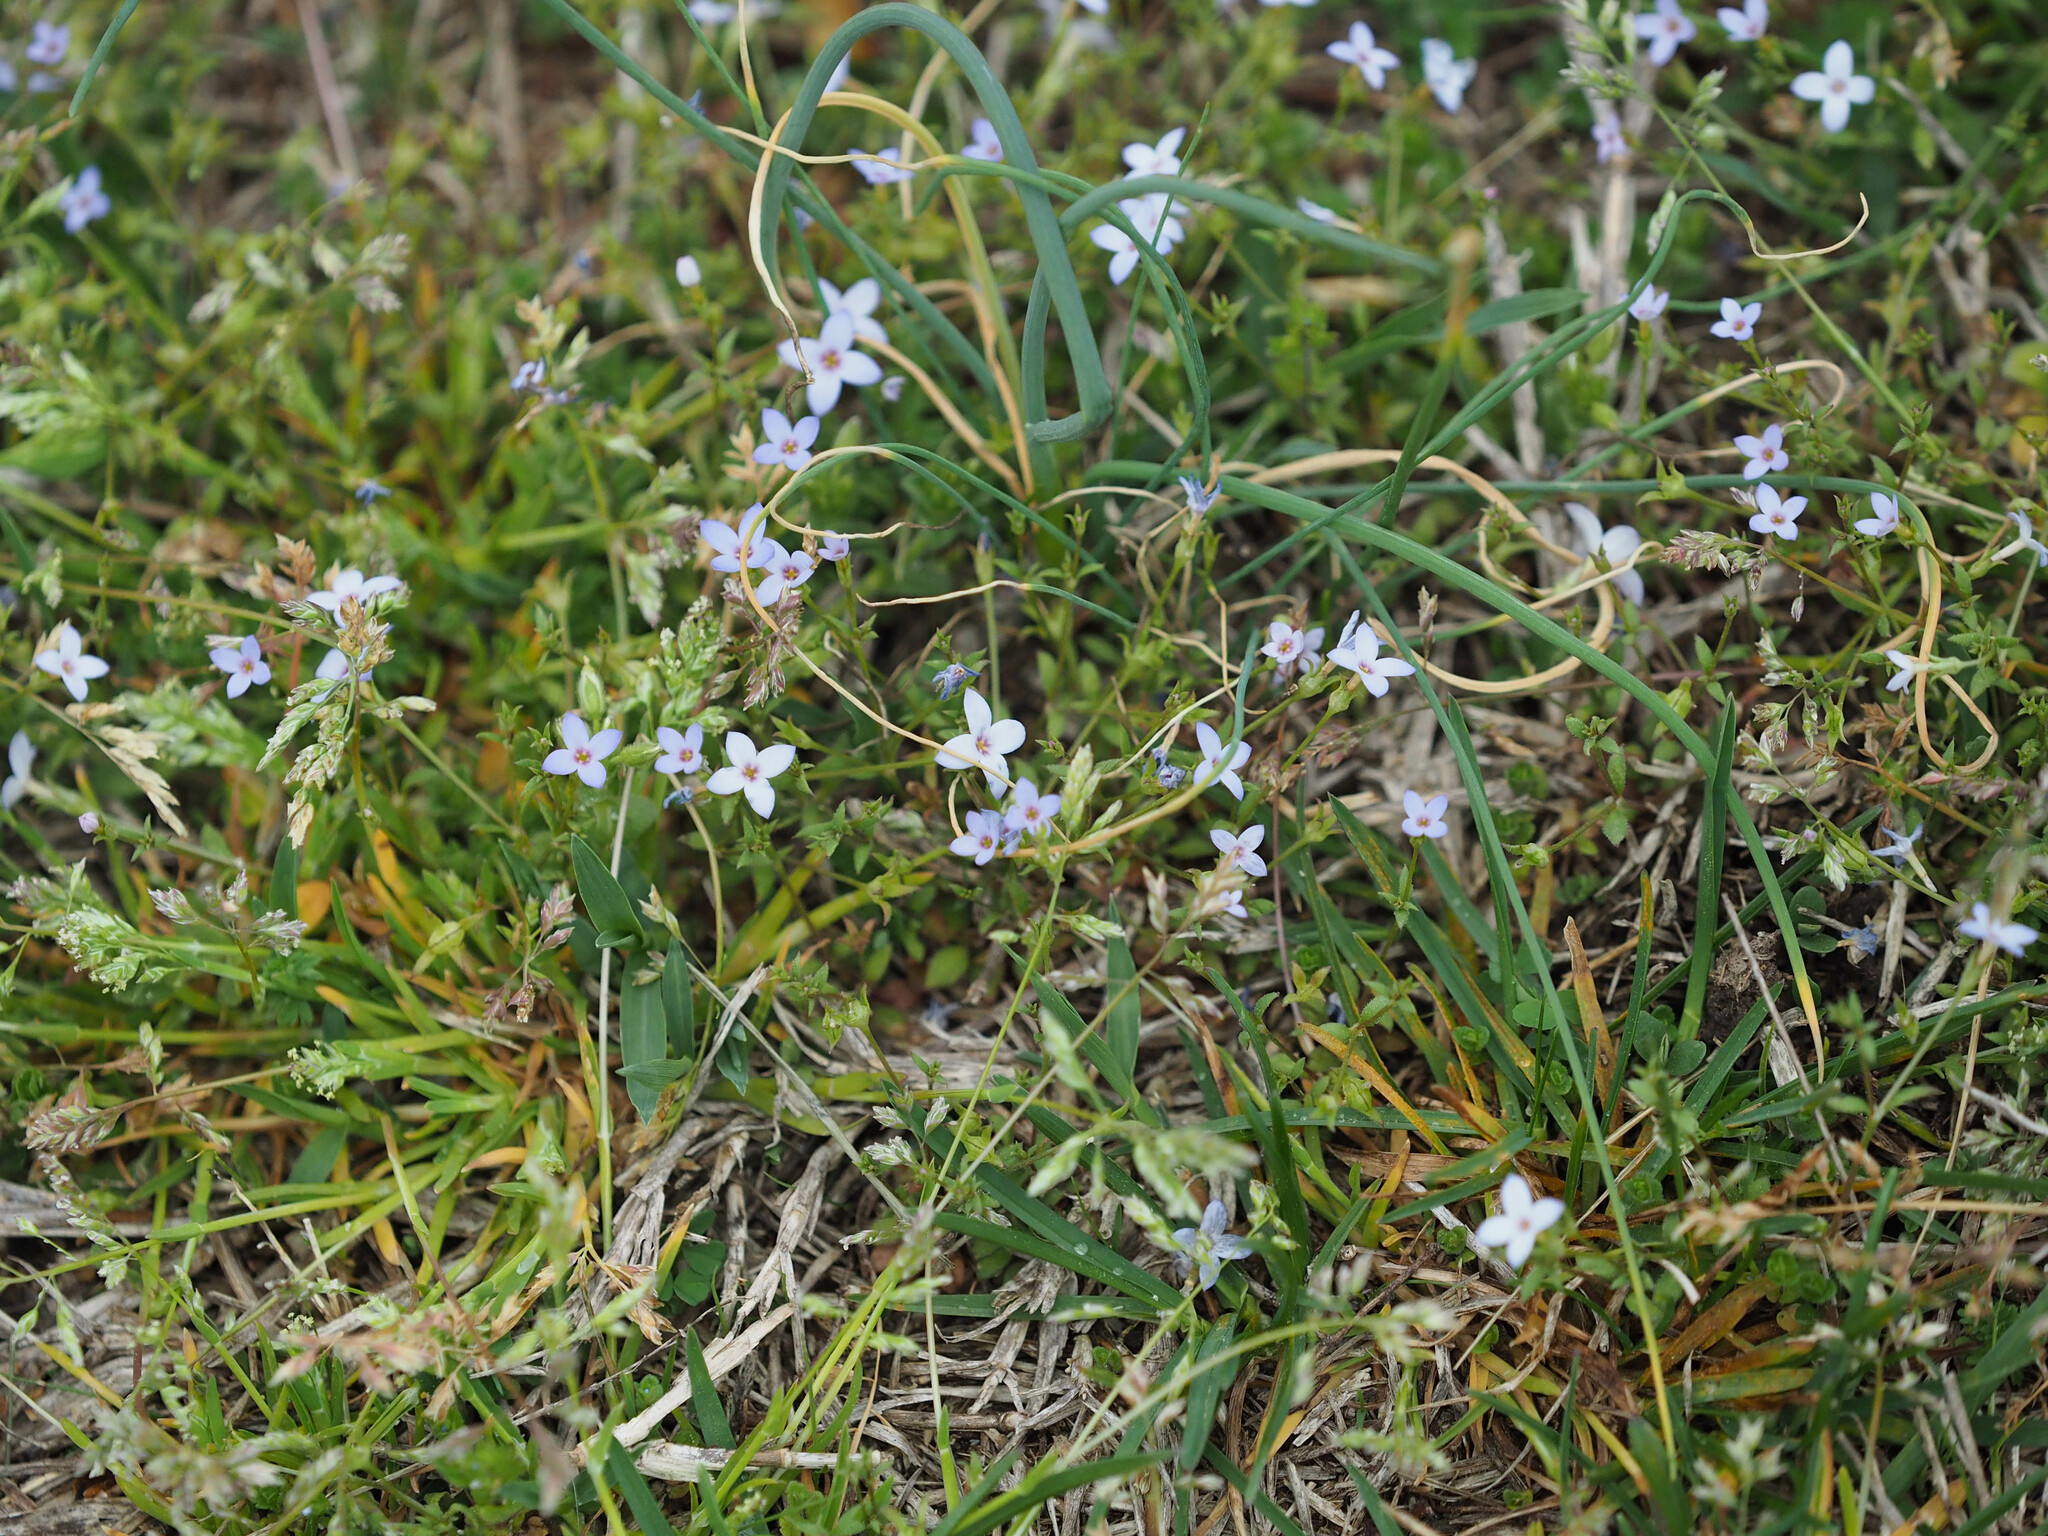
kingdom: Plantae
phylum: Tracheophyta
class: Magnoliopsida
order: Gentianales
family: Rubiaceae
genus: Houstonia
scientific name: Houstonia pusilla
